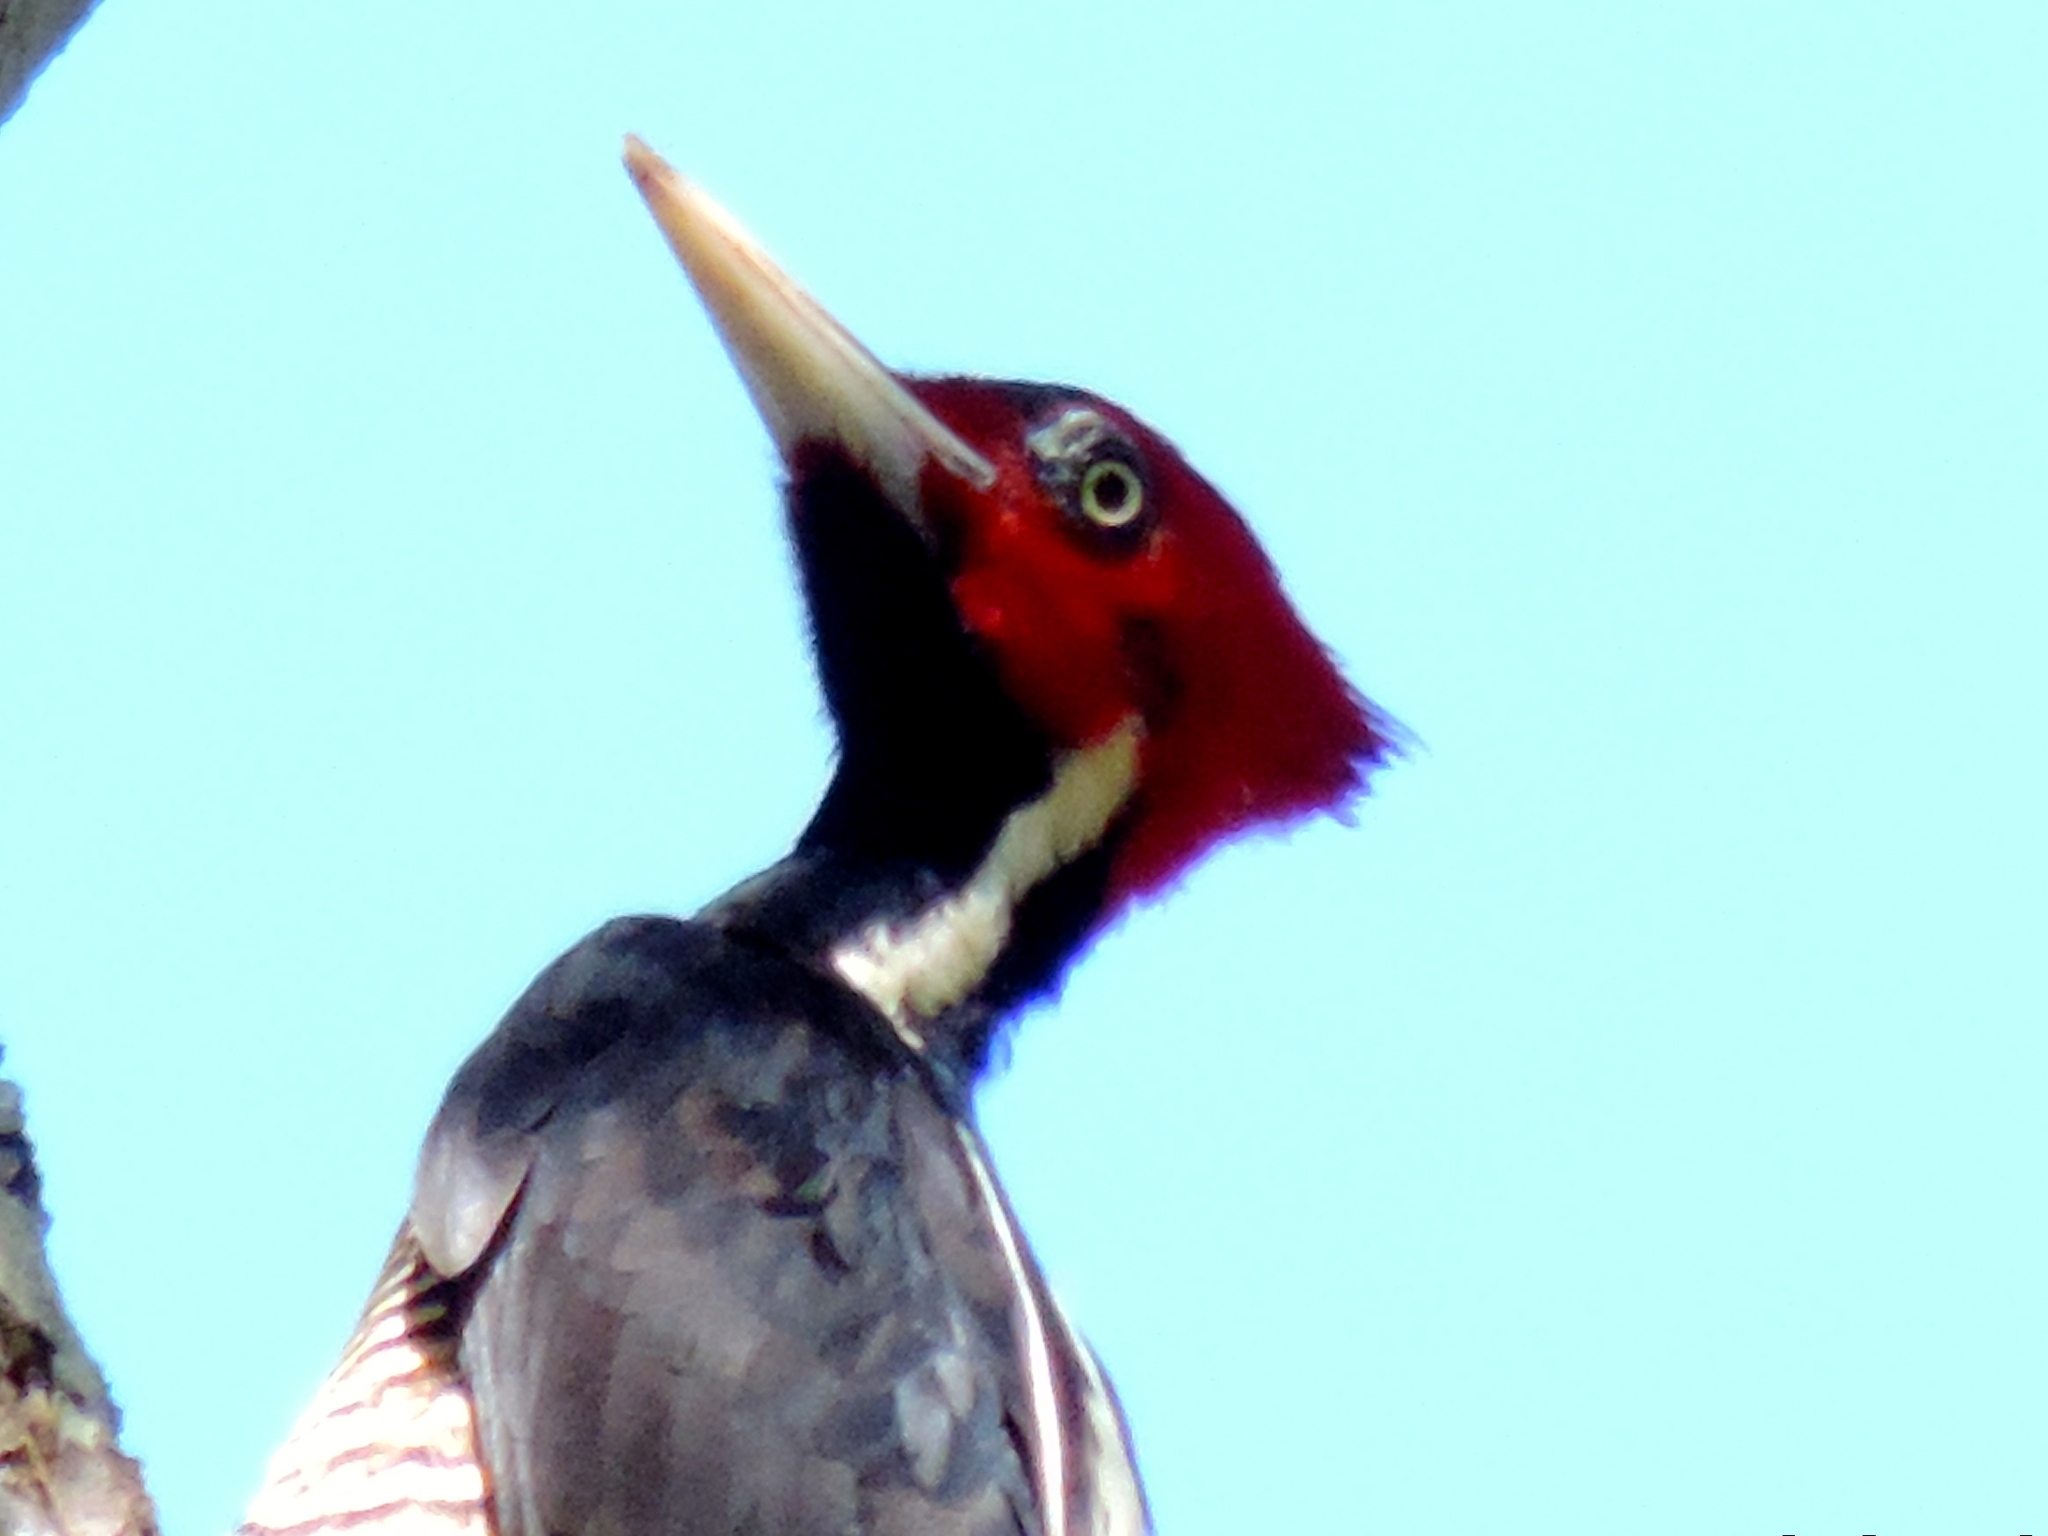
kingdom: Animalia
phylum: Chordata
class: Aves
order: Piciformes
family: Picidae
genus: Campephilus
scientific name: Campephilus guatemalensis
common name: Pale-billed woodpecker
